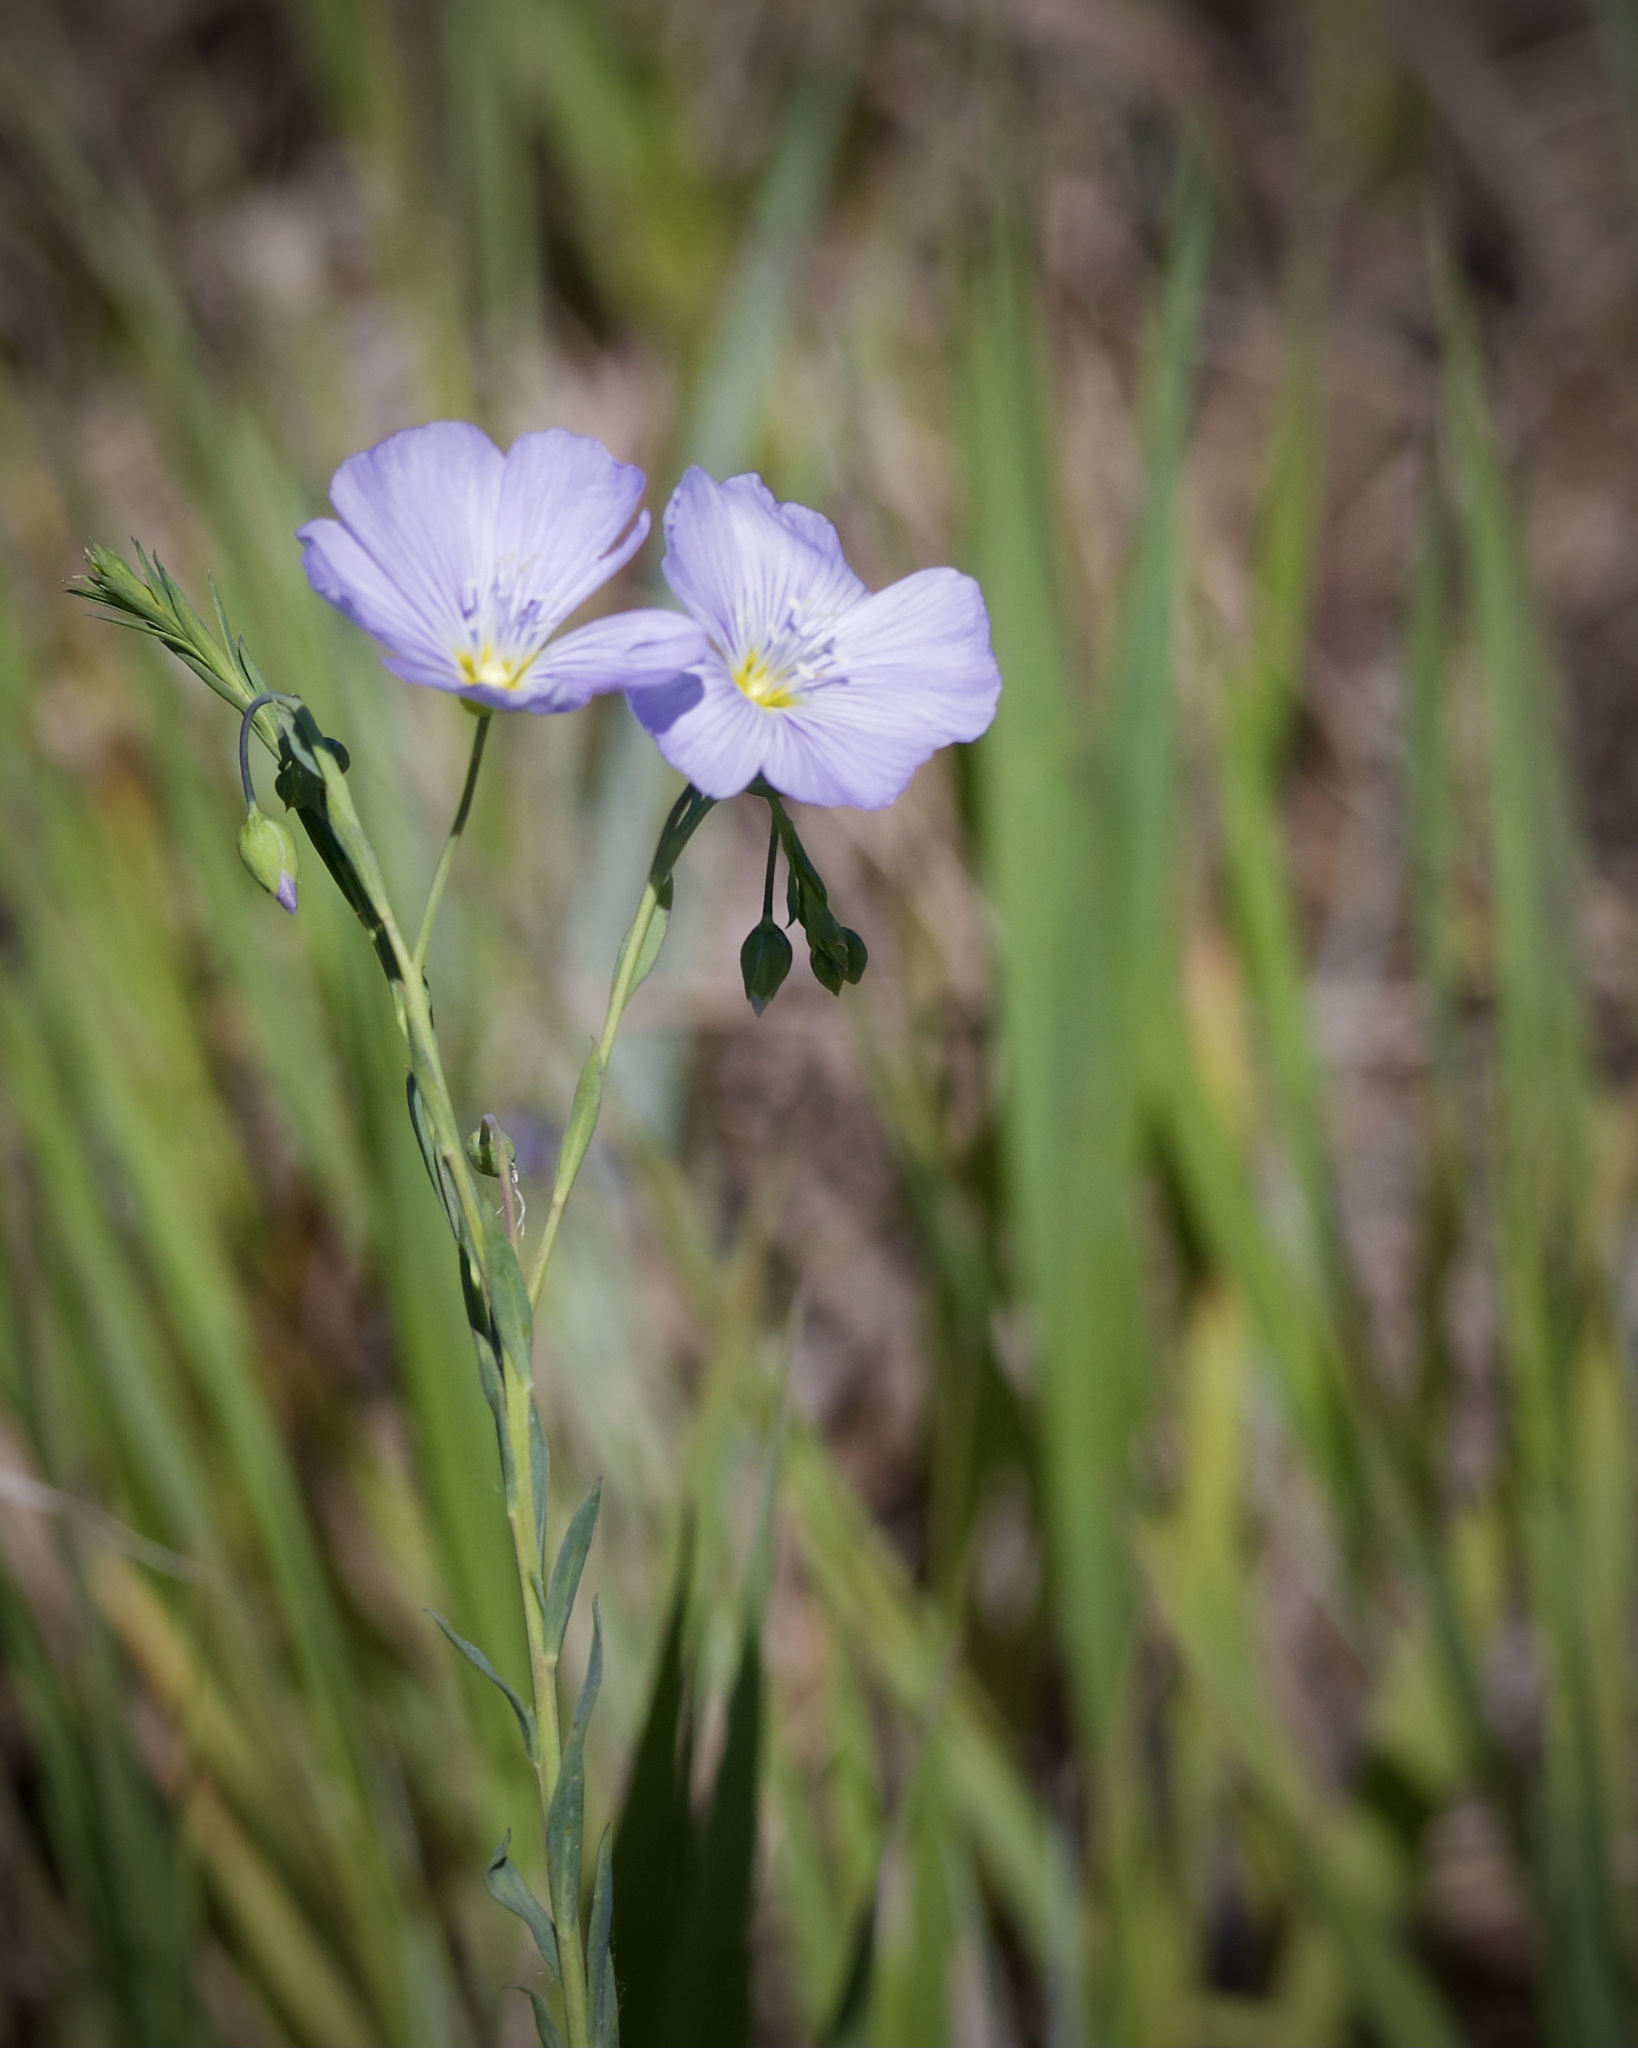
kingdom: Plantae
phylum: Tracheophyta
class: Magnoliopsida
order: Malpighiales
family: Linaceae
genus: Linum
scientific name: Linum lewisii
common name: Prairie flax
